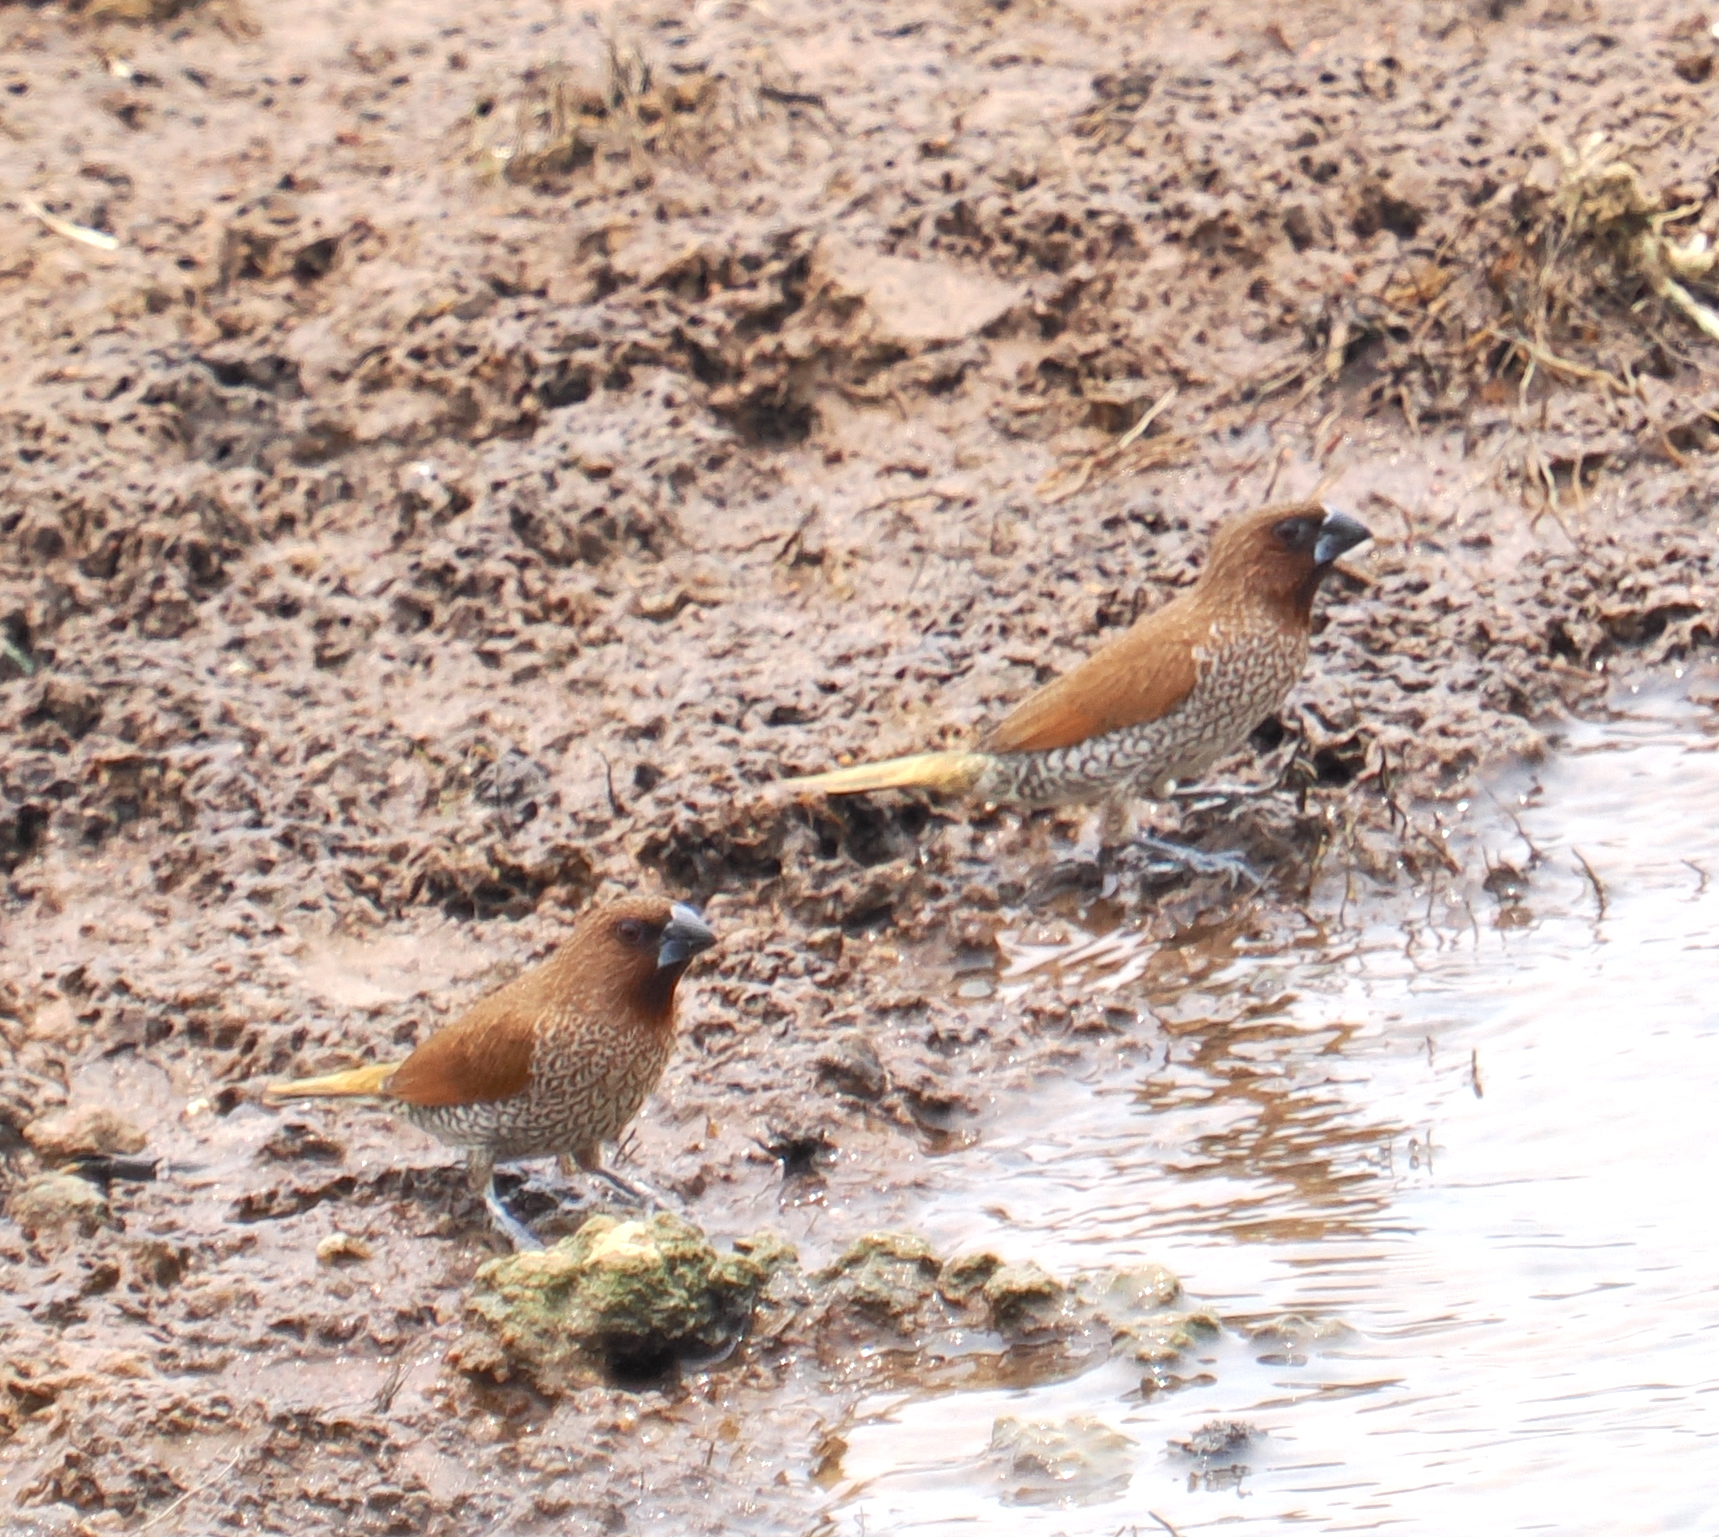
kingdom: Animalia
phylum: Chordata
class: Aves
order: Passeriformes
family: Estrildidae
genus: Lonchura
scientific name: Lonchura punctulata
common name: Scaly-breasted munia
